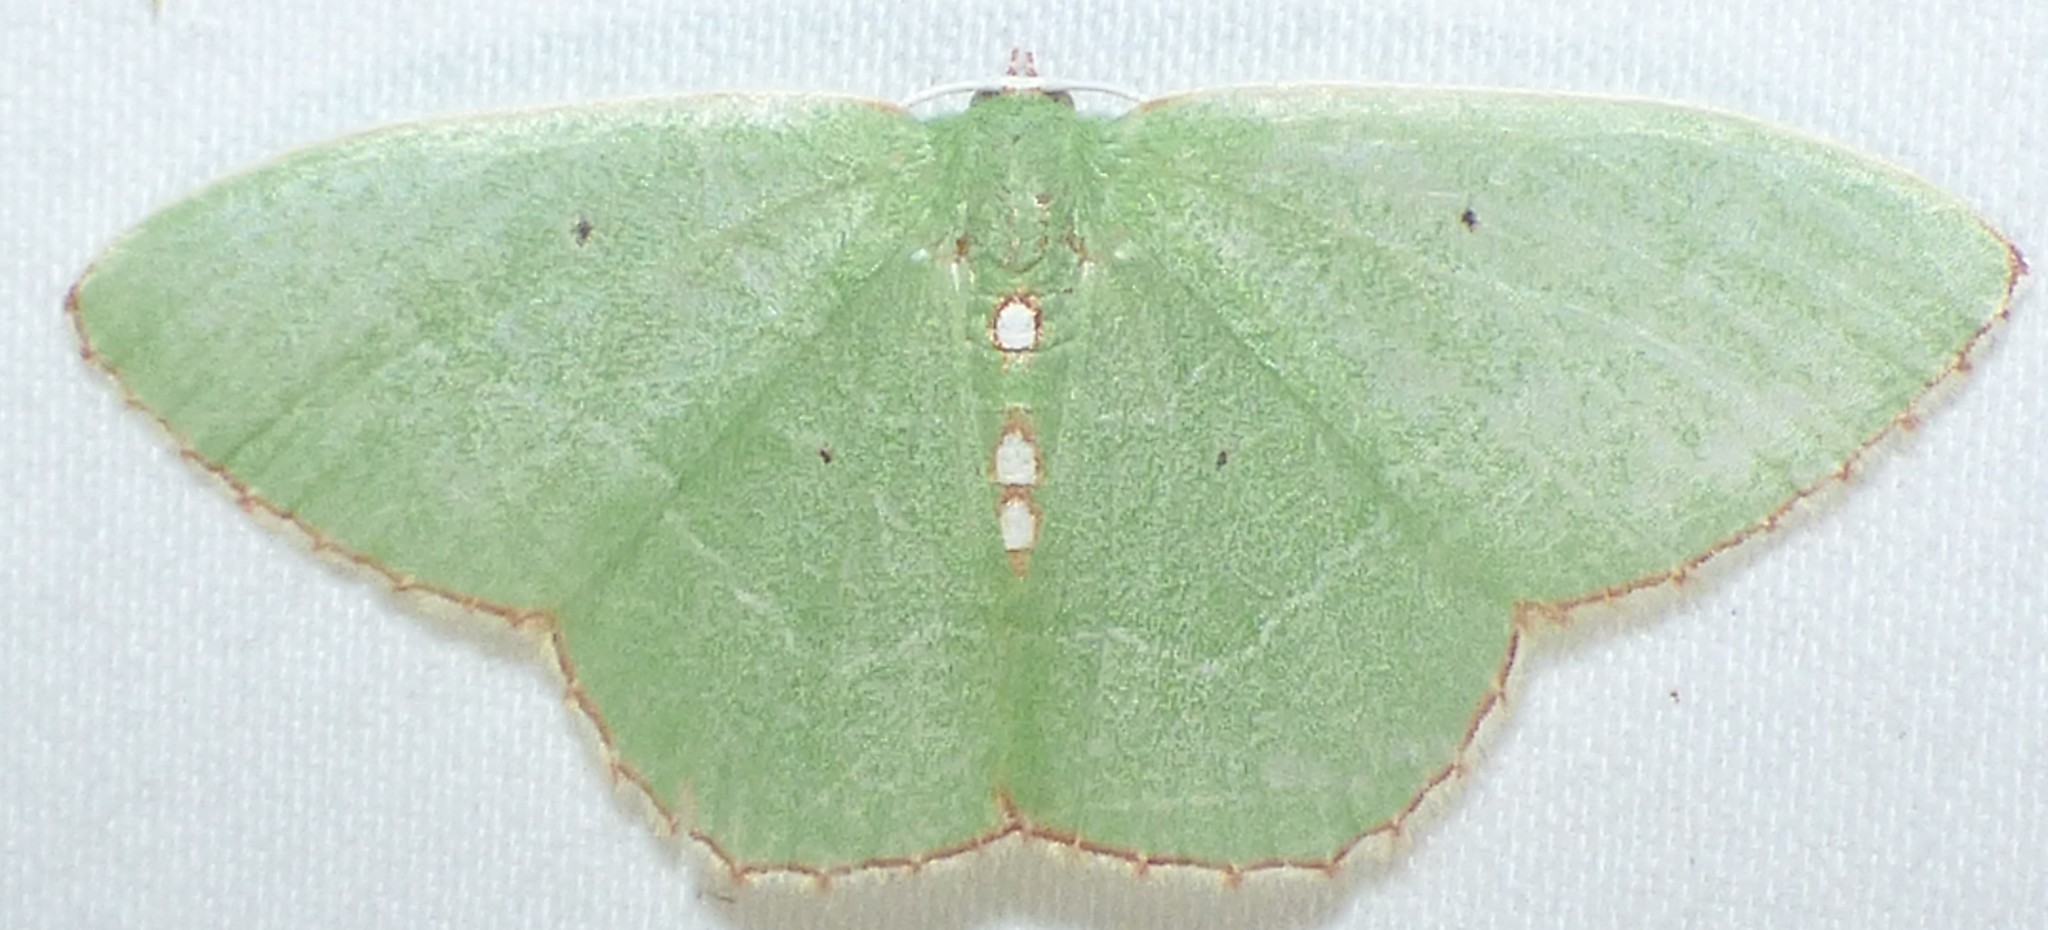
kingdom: Animalia
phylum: Arthropoda
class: Insecta
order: Lepidoptera
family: Geometridae
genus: Nemoria
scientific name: Nemoria lixaria
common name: Red-bordered emerald
